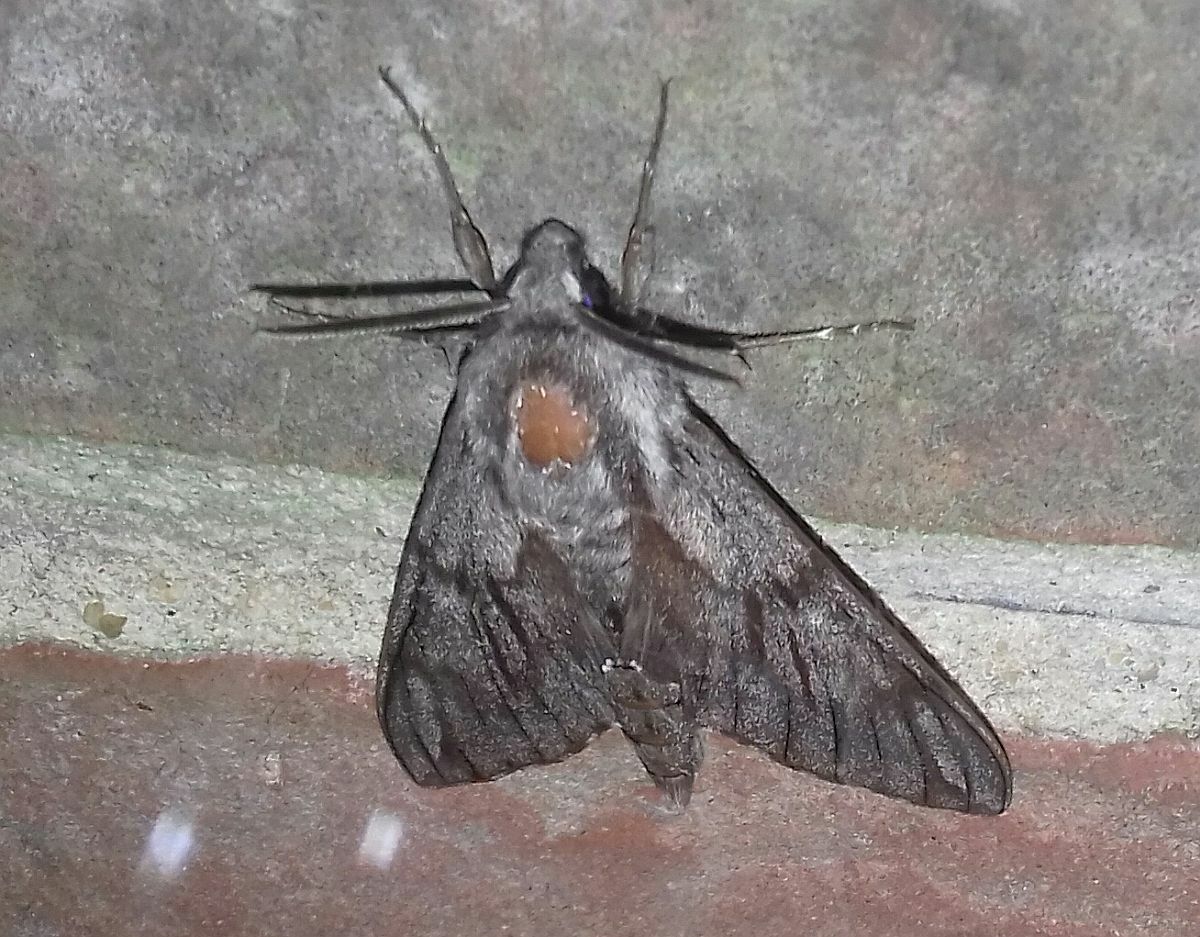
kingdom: Animalia
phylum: Arthropoda
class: Insecta
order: Lepidoptera
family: Sphingidae
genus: Sphinx
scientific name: Sphinx pinastri
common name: Pine hawk-moth
